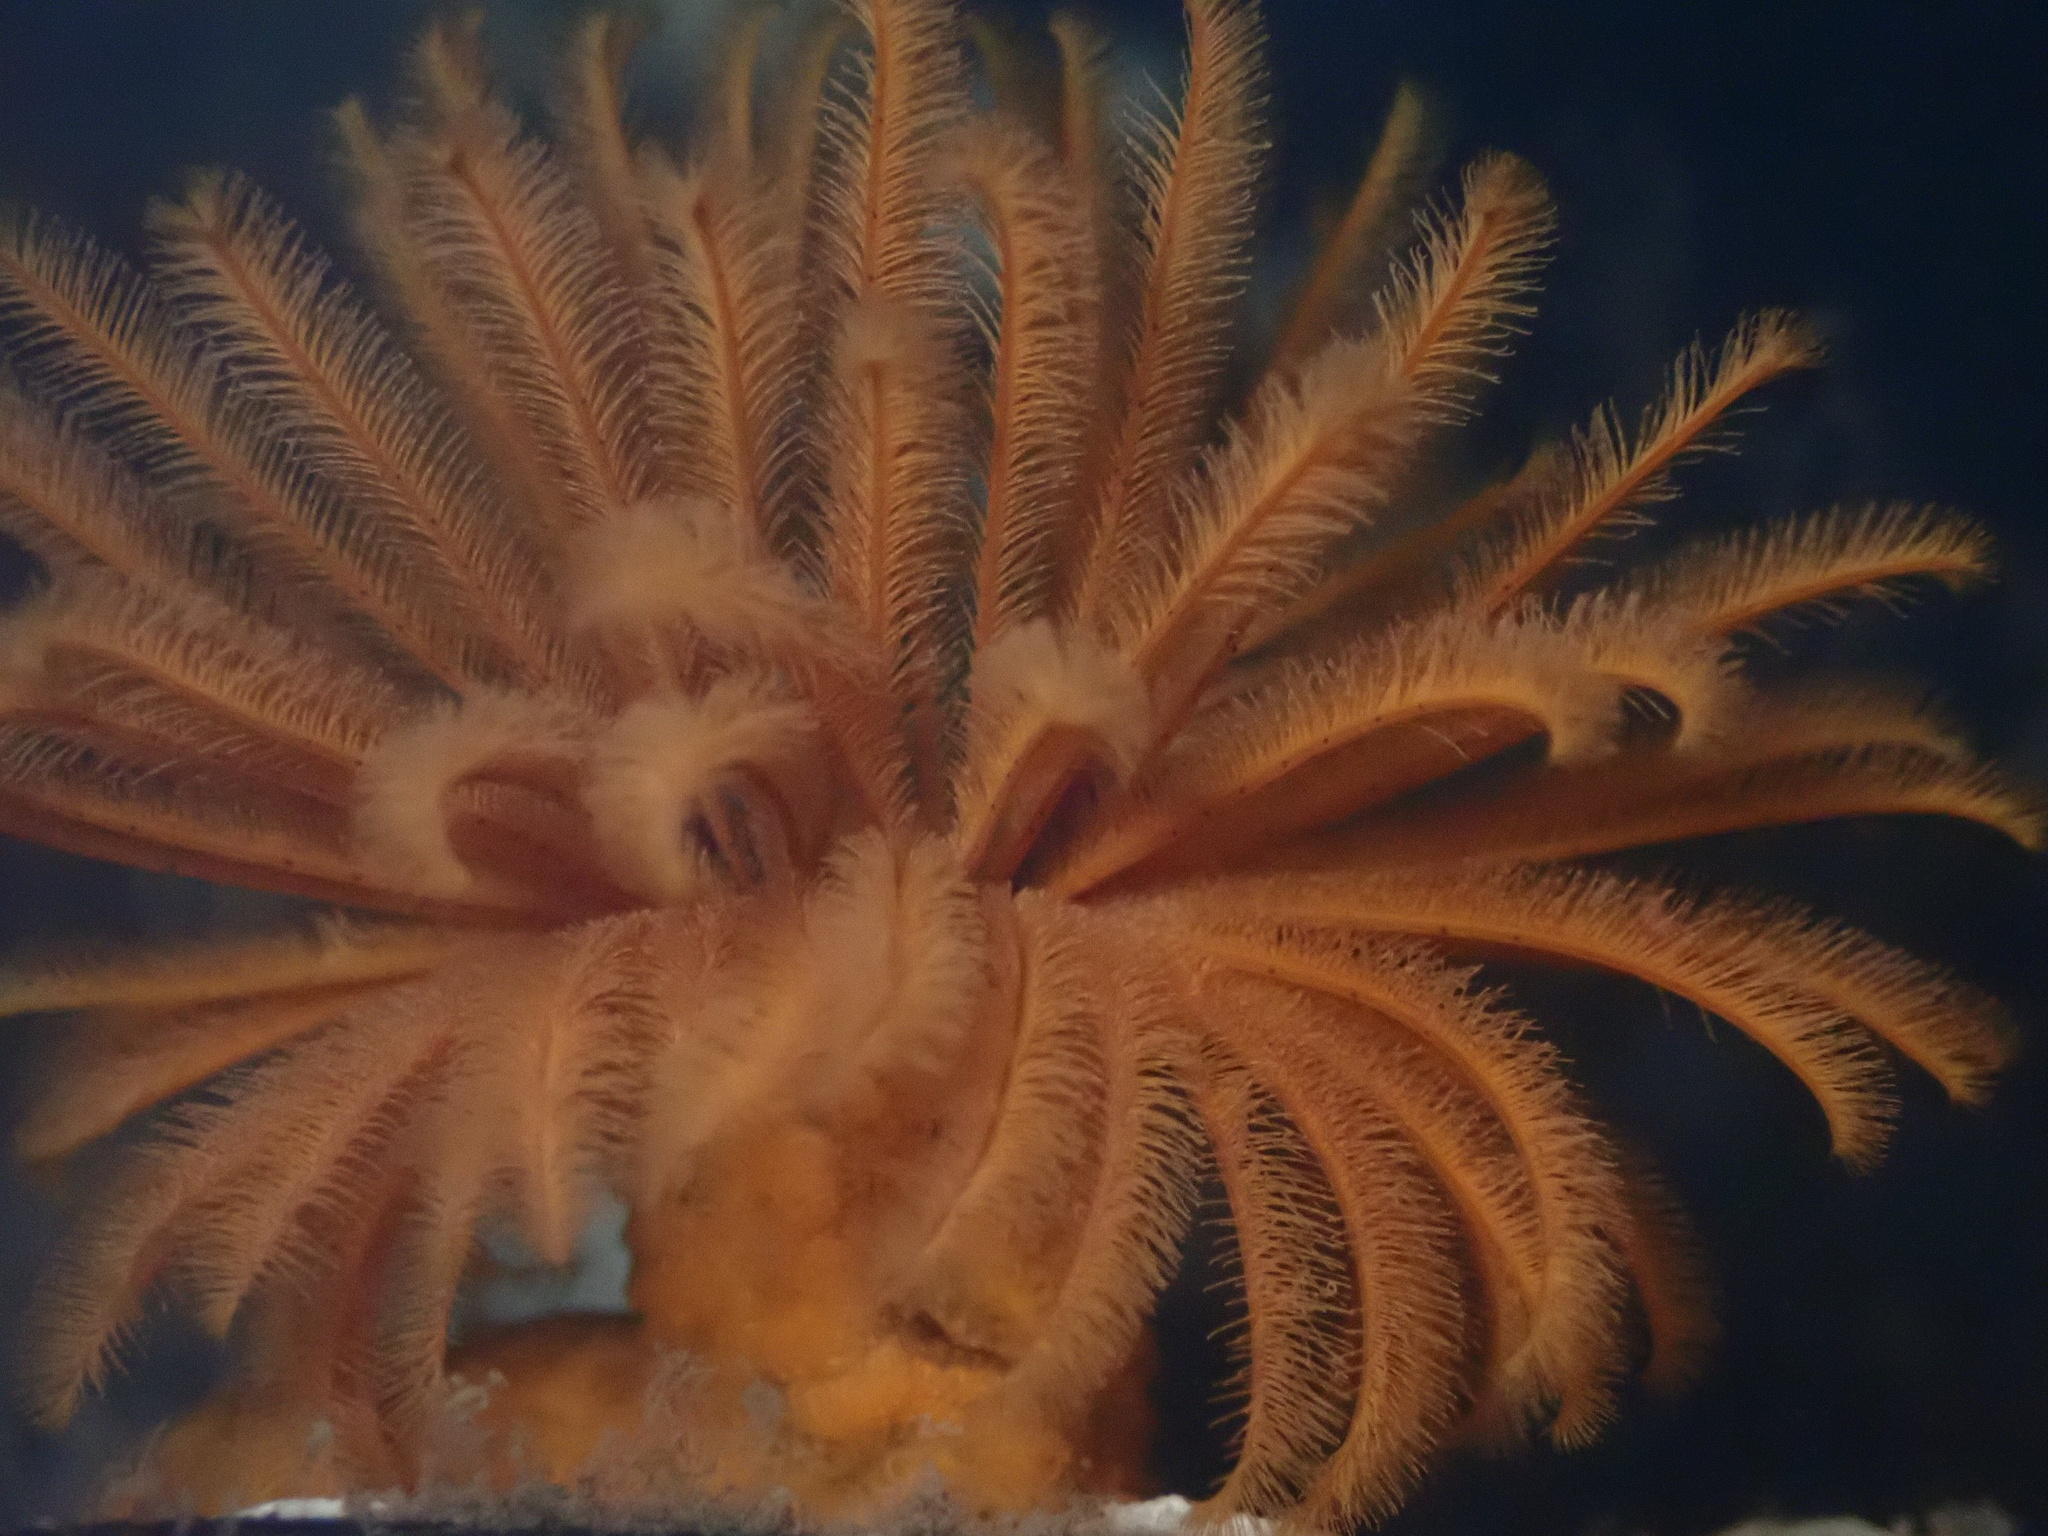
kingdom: Animalia
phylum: Annelida
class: Polychaeta
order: Sabellida
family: Sabellidae
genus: Eudistylia
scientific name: Eudistylia polymorpha
